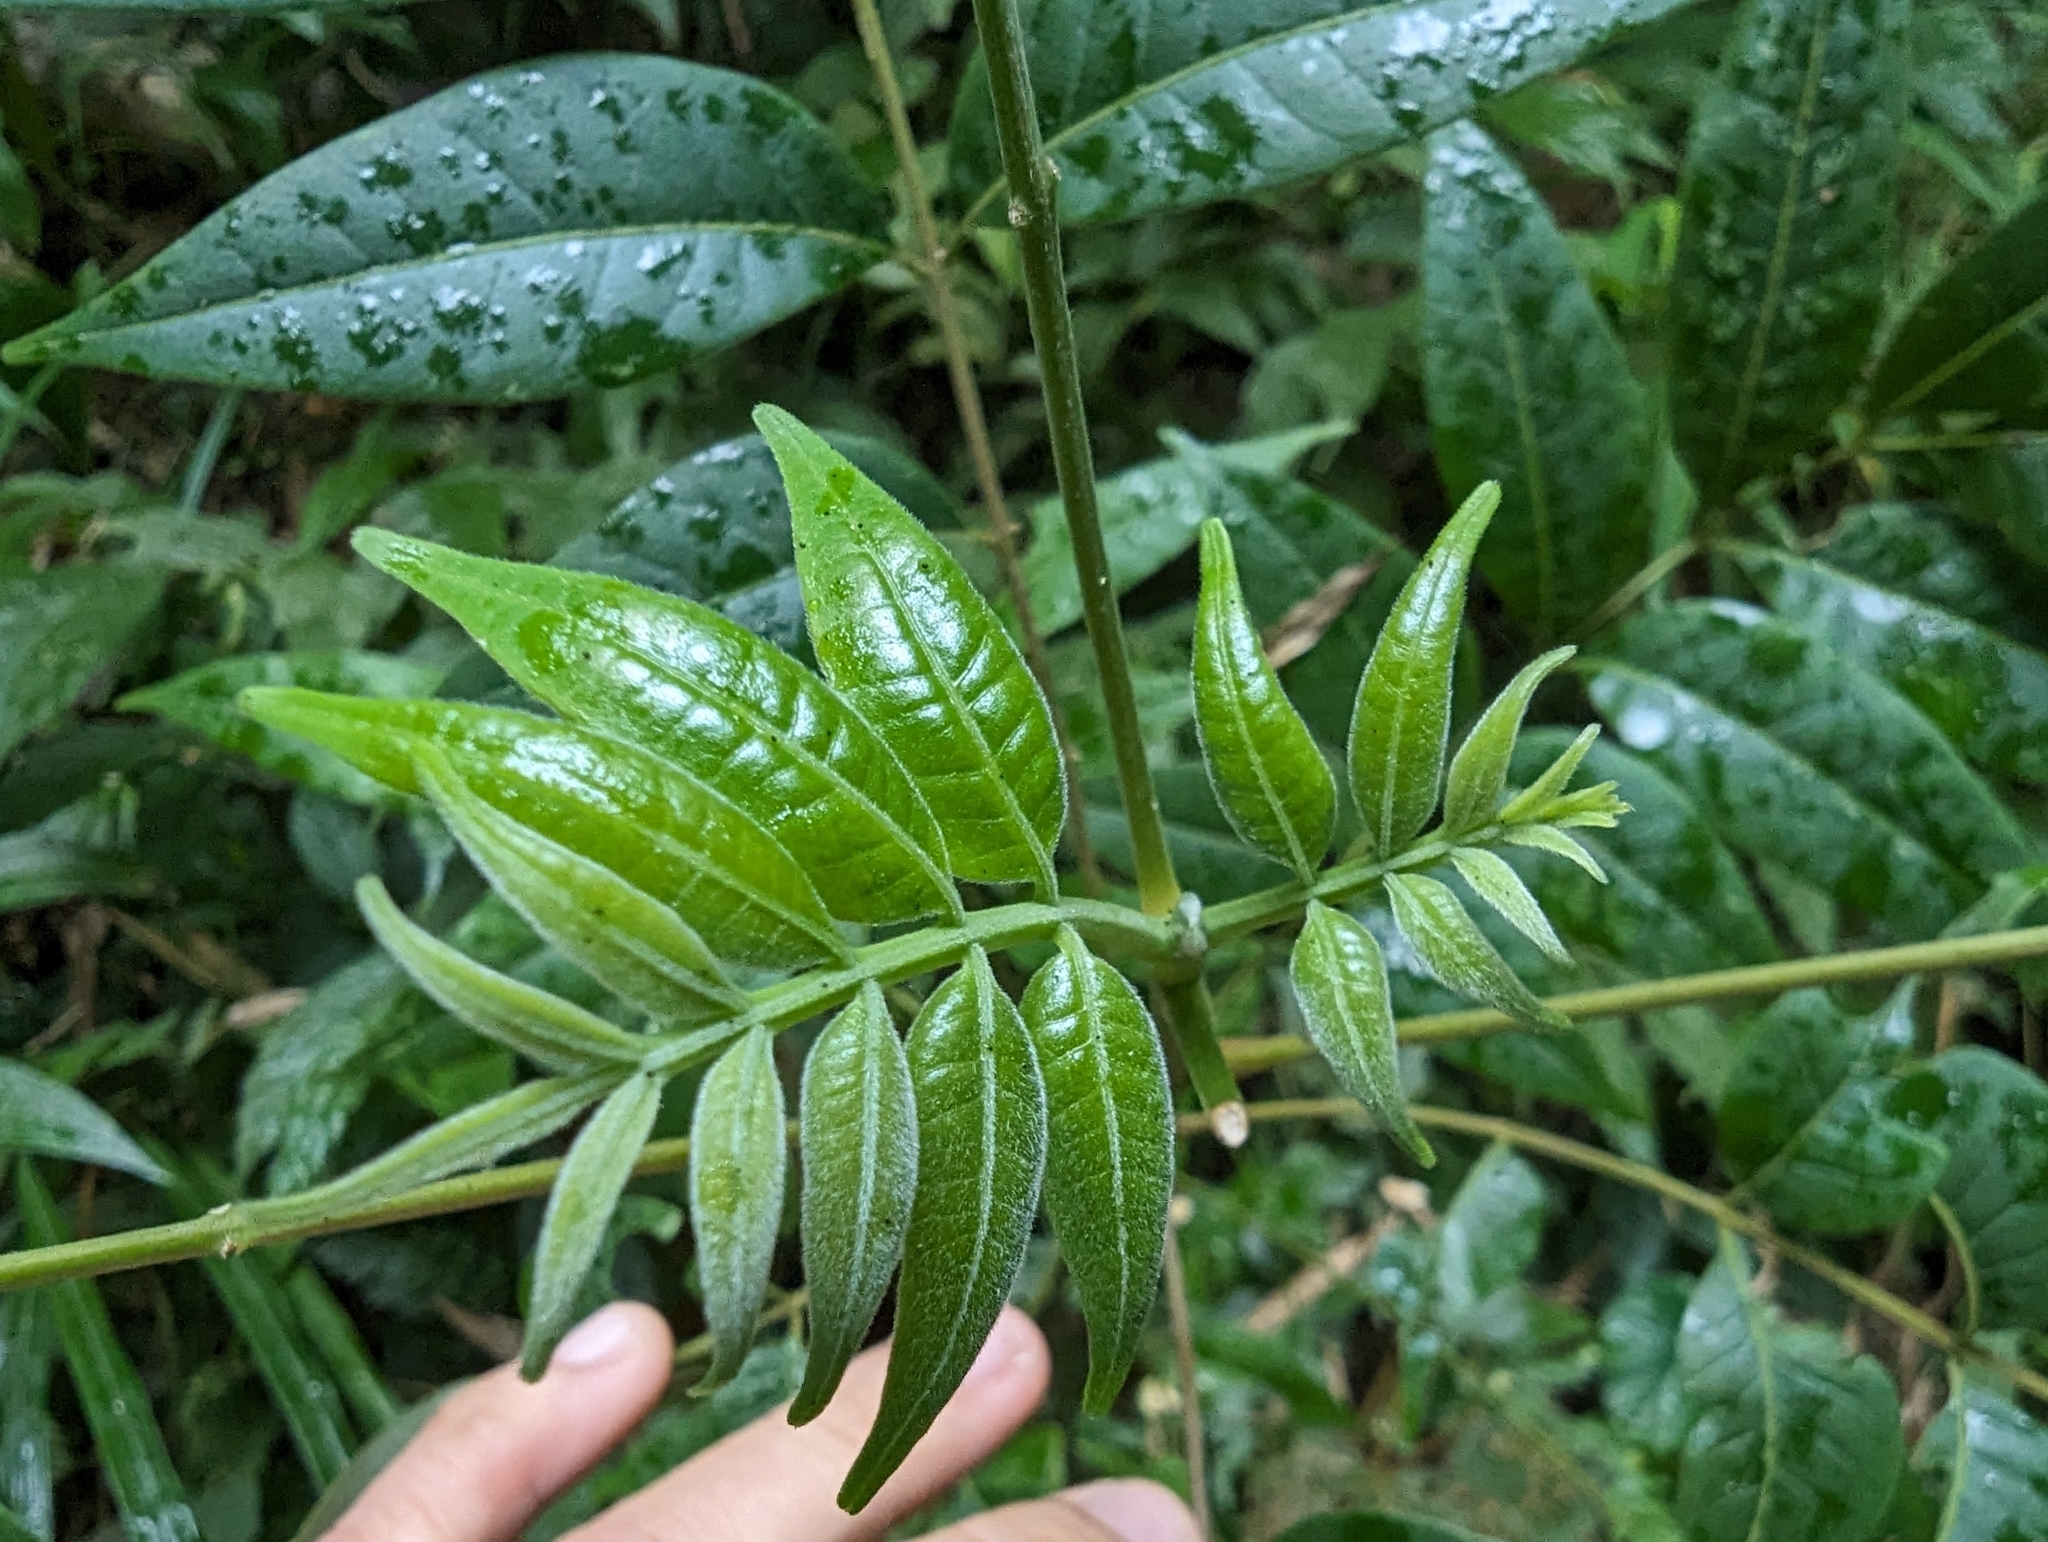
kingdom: Plantae
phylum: Tracheophyta
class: Magnoliopsida
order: Sapindales
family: Rutaceae
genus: Tetradium
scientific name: Tetradium glabrifolium
